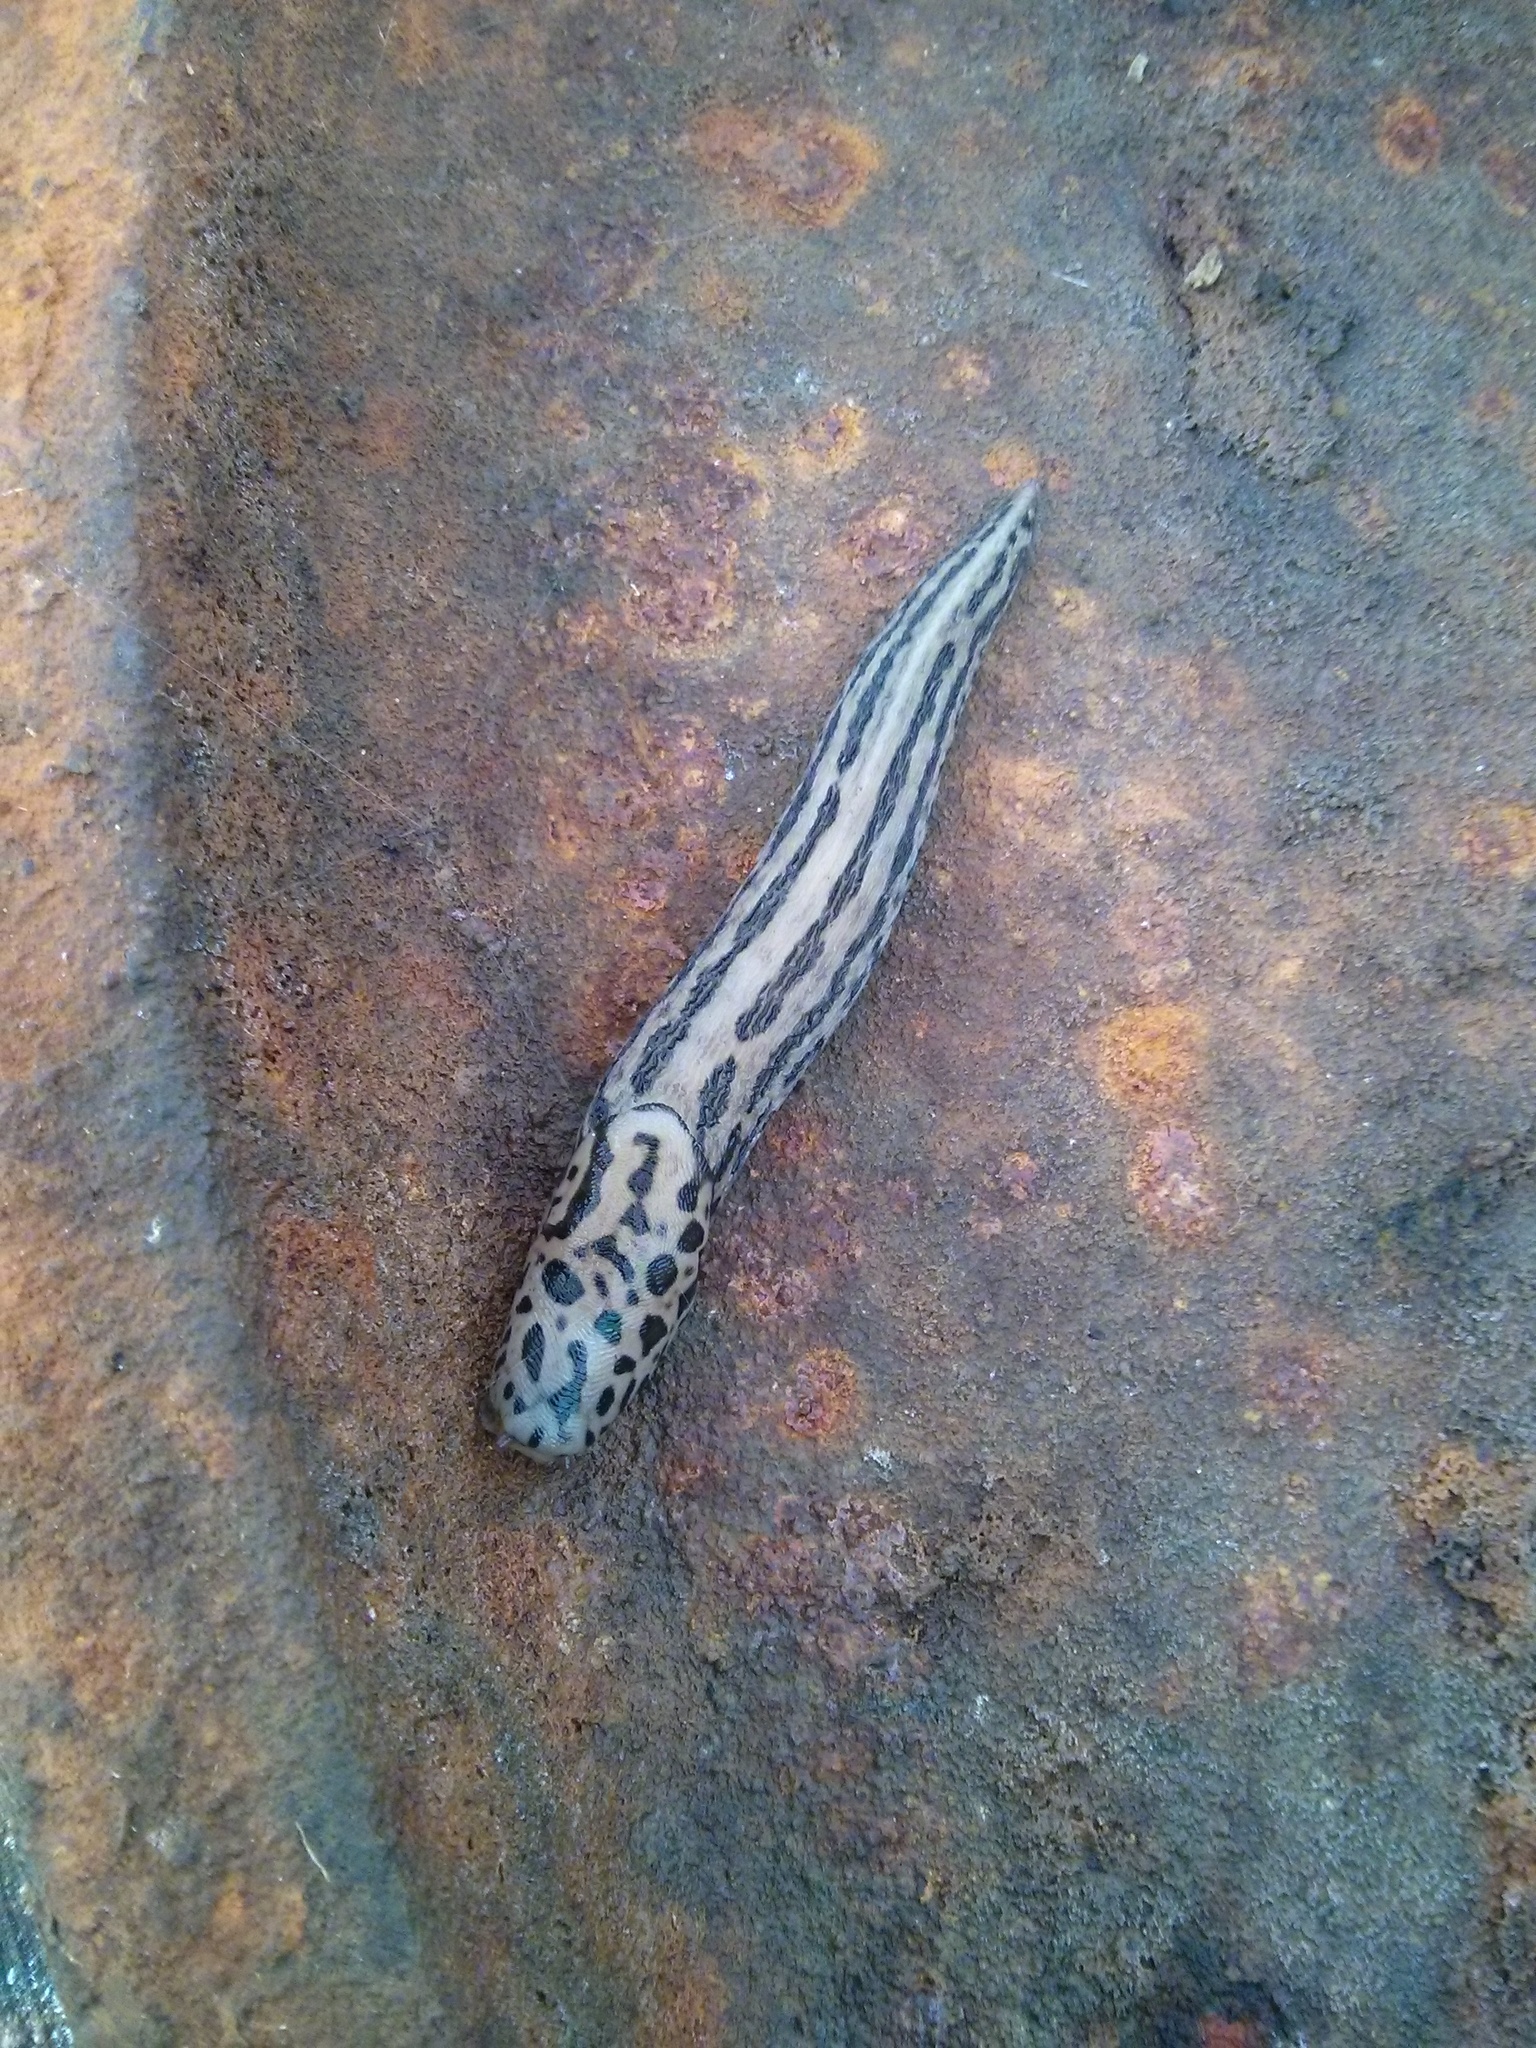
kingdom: Animalia
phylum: Mollusca
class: Gastropoda
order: Stylommatophora
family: Limacidae
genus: Limax
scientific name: Limax maximus
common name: Great grey slug
